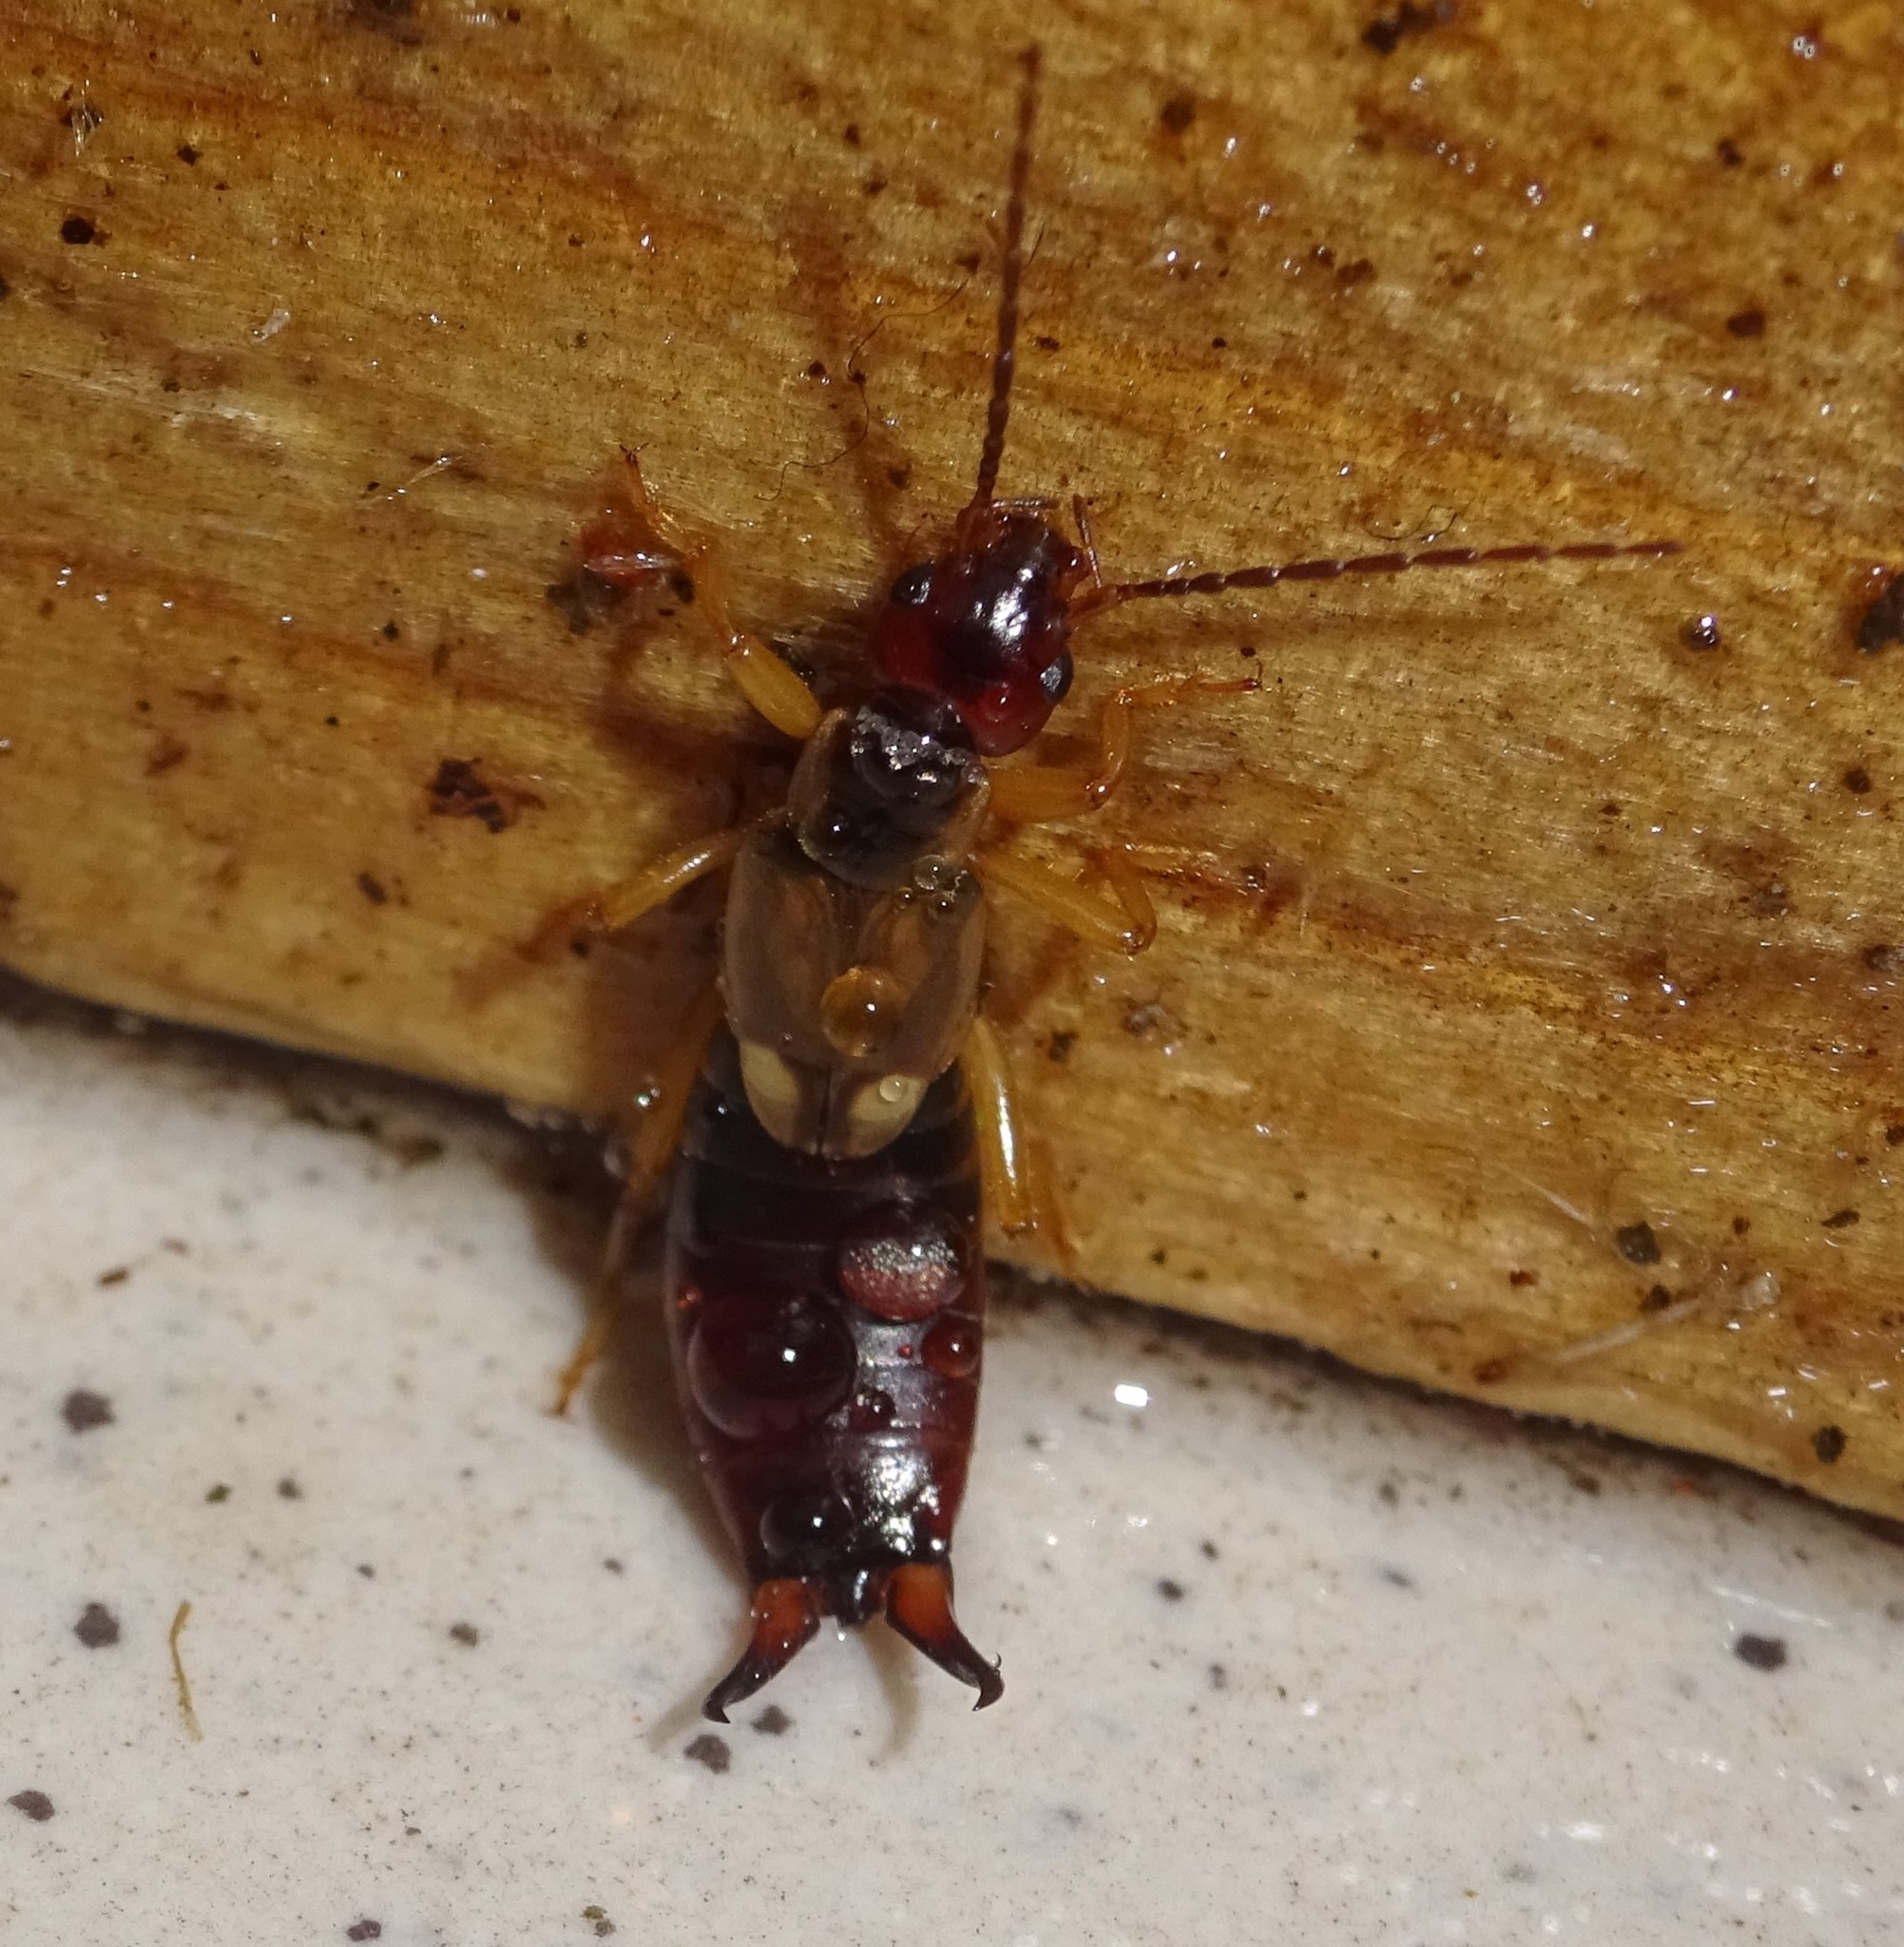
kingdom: Animalia
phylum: Arthropoda
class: Insecta
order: Dermaptera
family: Forficulidae
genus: Forficula
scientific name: Forficula
